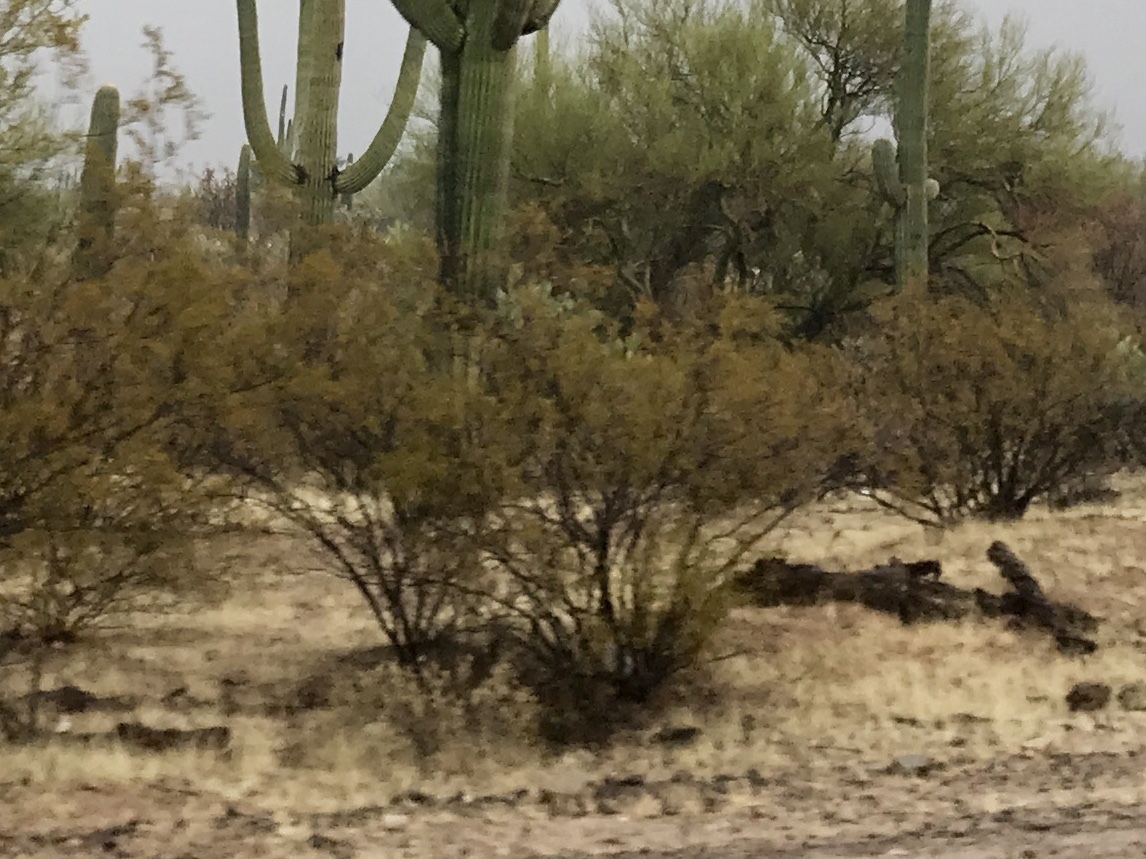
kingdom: Plantae
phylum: Tracheophyta
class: Magnoliopsida
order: Zygophyllales
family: Zygophyllaceae
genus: Larrea
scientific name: Larrea tridentata
